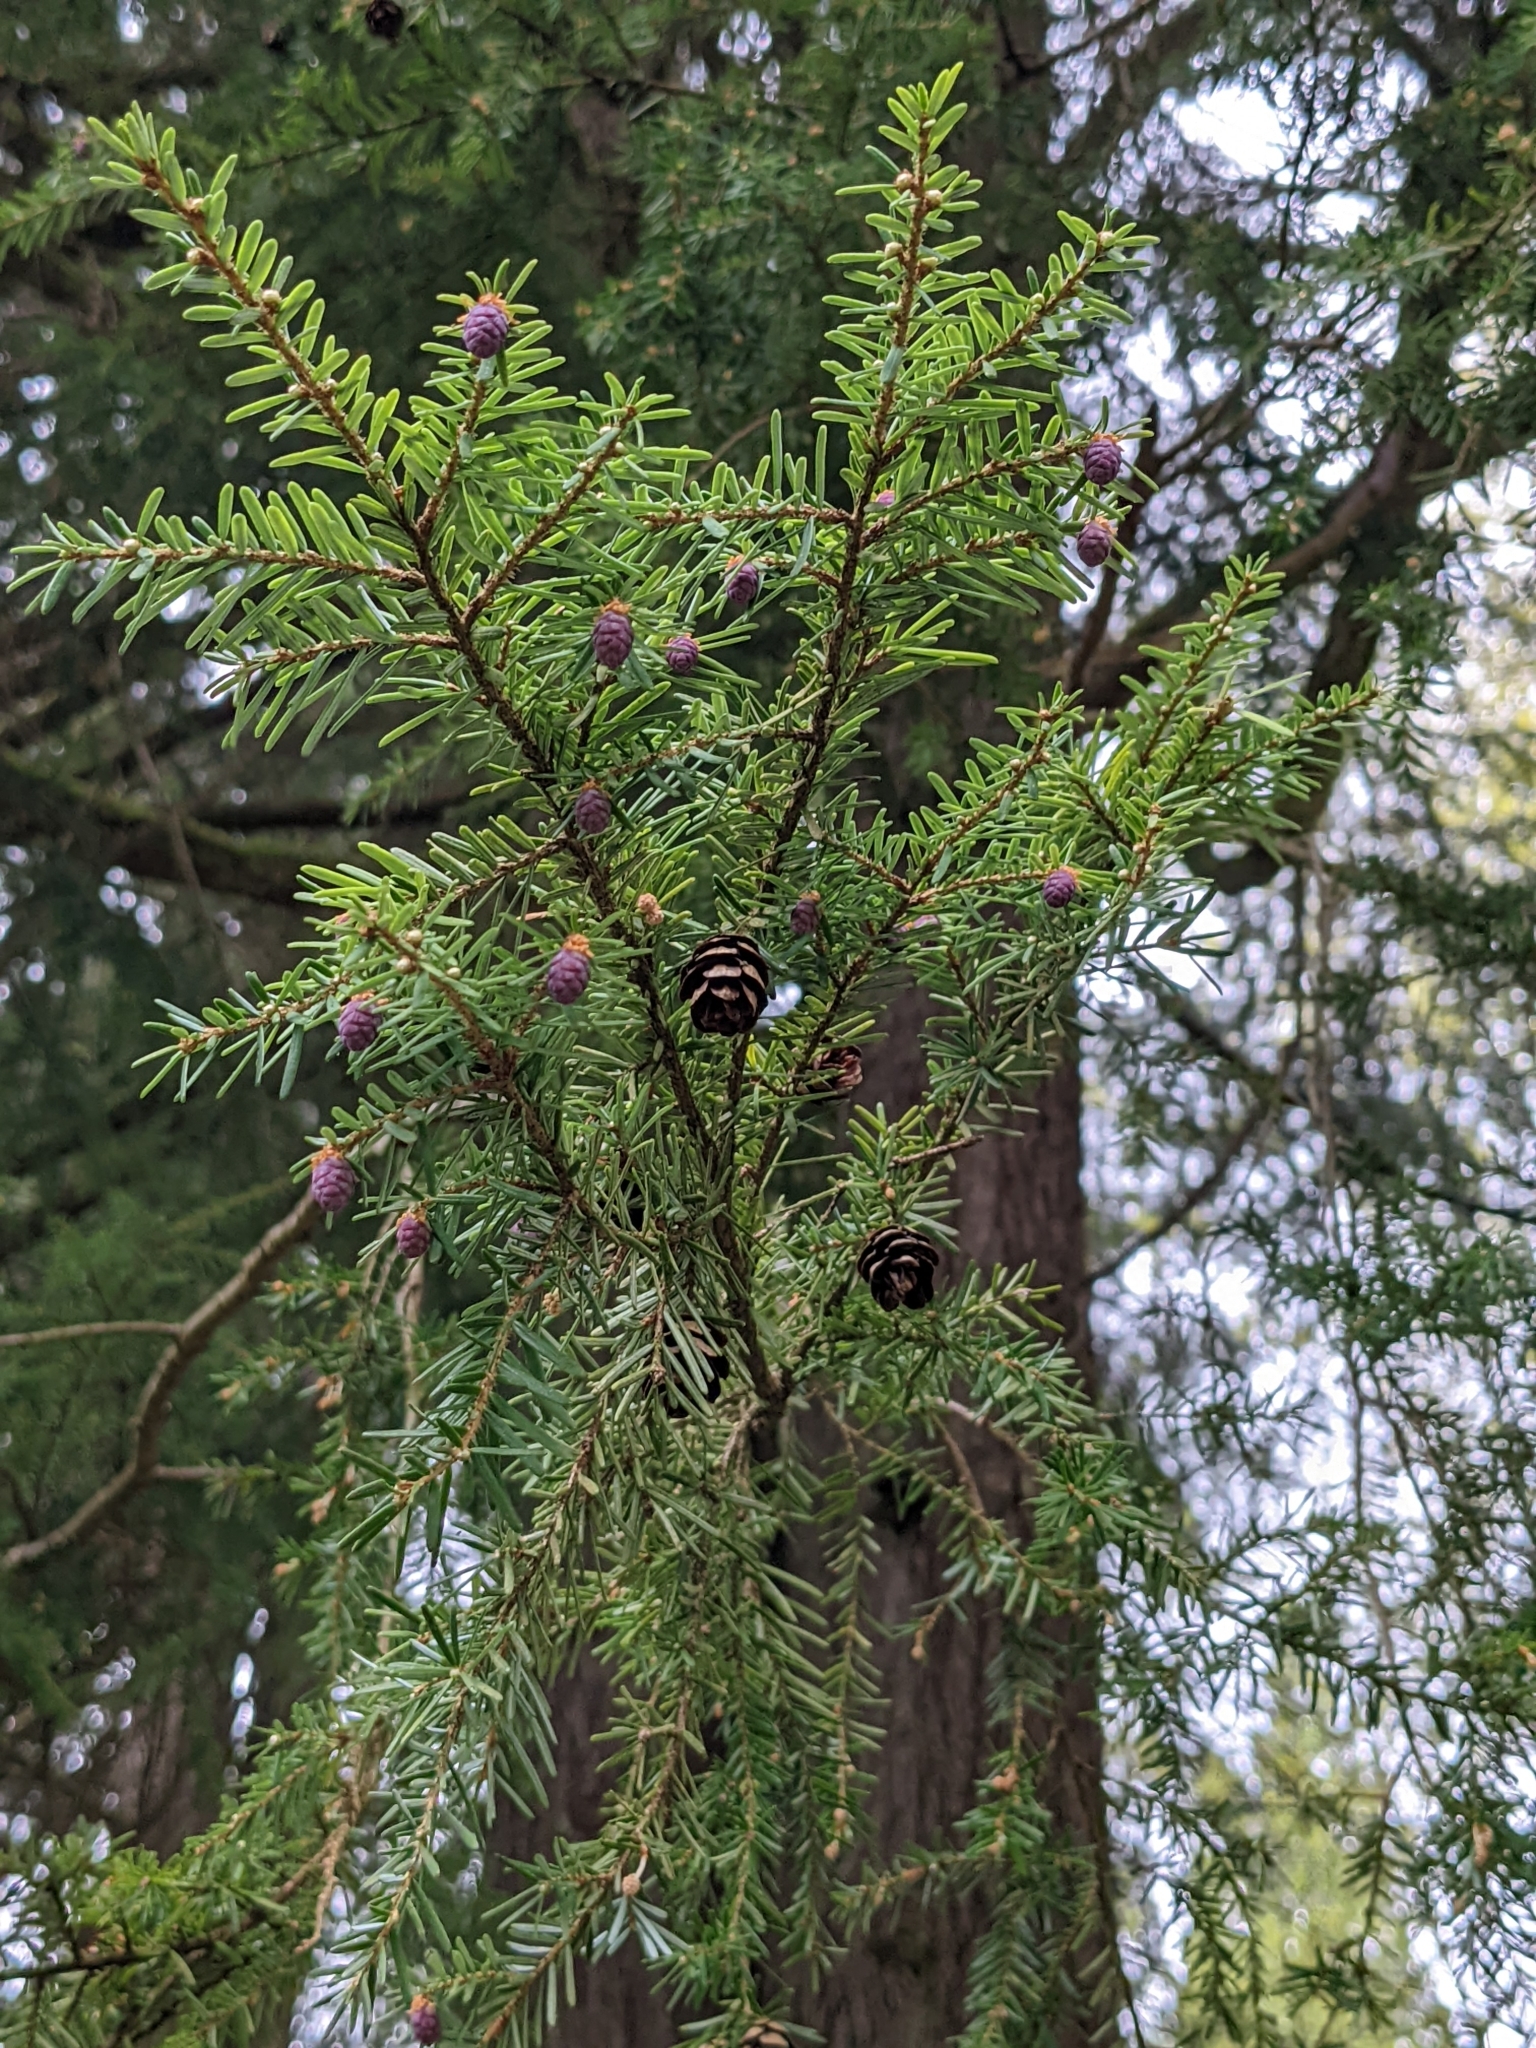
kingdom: Plantae
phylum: Tracheophyta
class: Pinopsida
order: Pinales
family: Pinaceae
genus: Tsuga
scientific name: Tsuga heterophylla
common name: Western hemlock
